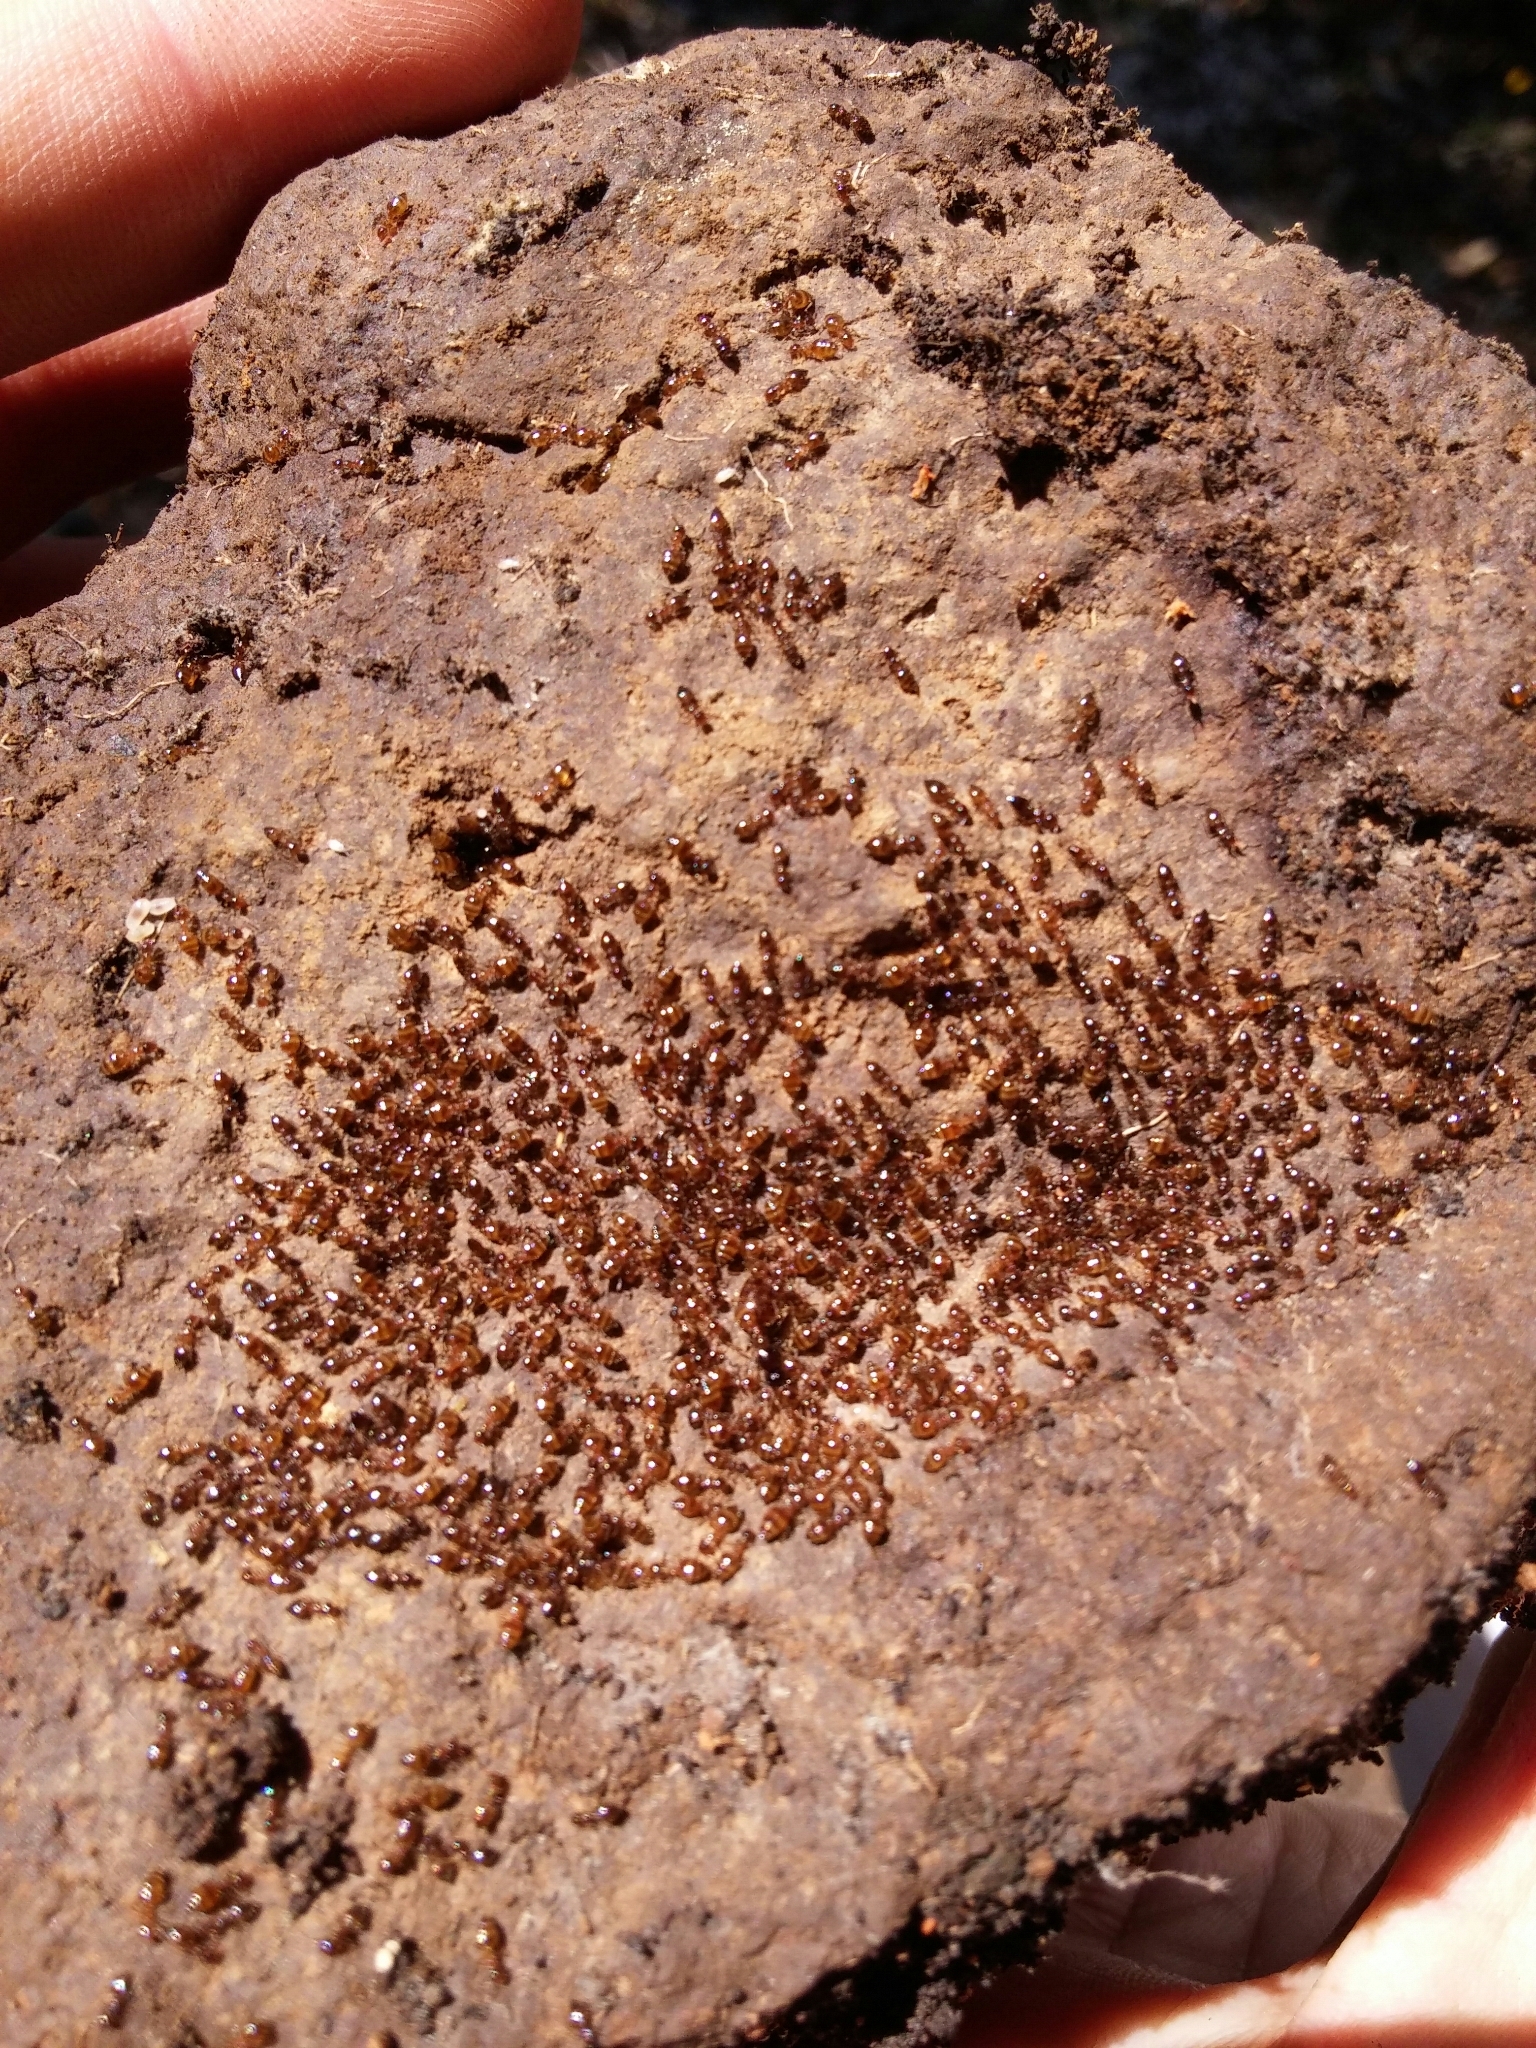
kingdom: Animalia
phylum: Arthropoda
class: Insecta
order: Hymenoptera
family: Formicidae
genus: Crematogaster
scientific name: Crematogaster sordidula
